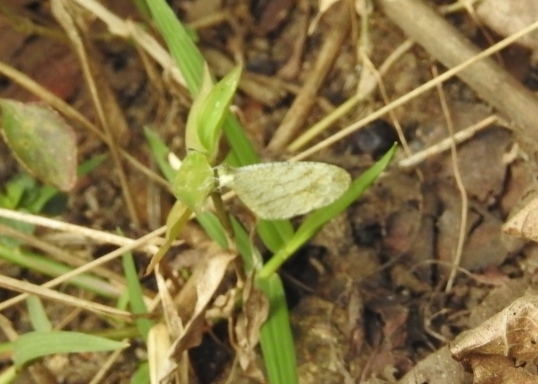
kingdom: Animalia
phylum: Arthropoda
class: Insecta
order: Lepidoptera
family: Pieridae
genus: Leptosia
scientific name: Leptosia nina
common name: Psyche
